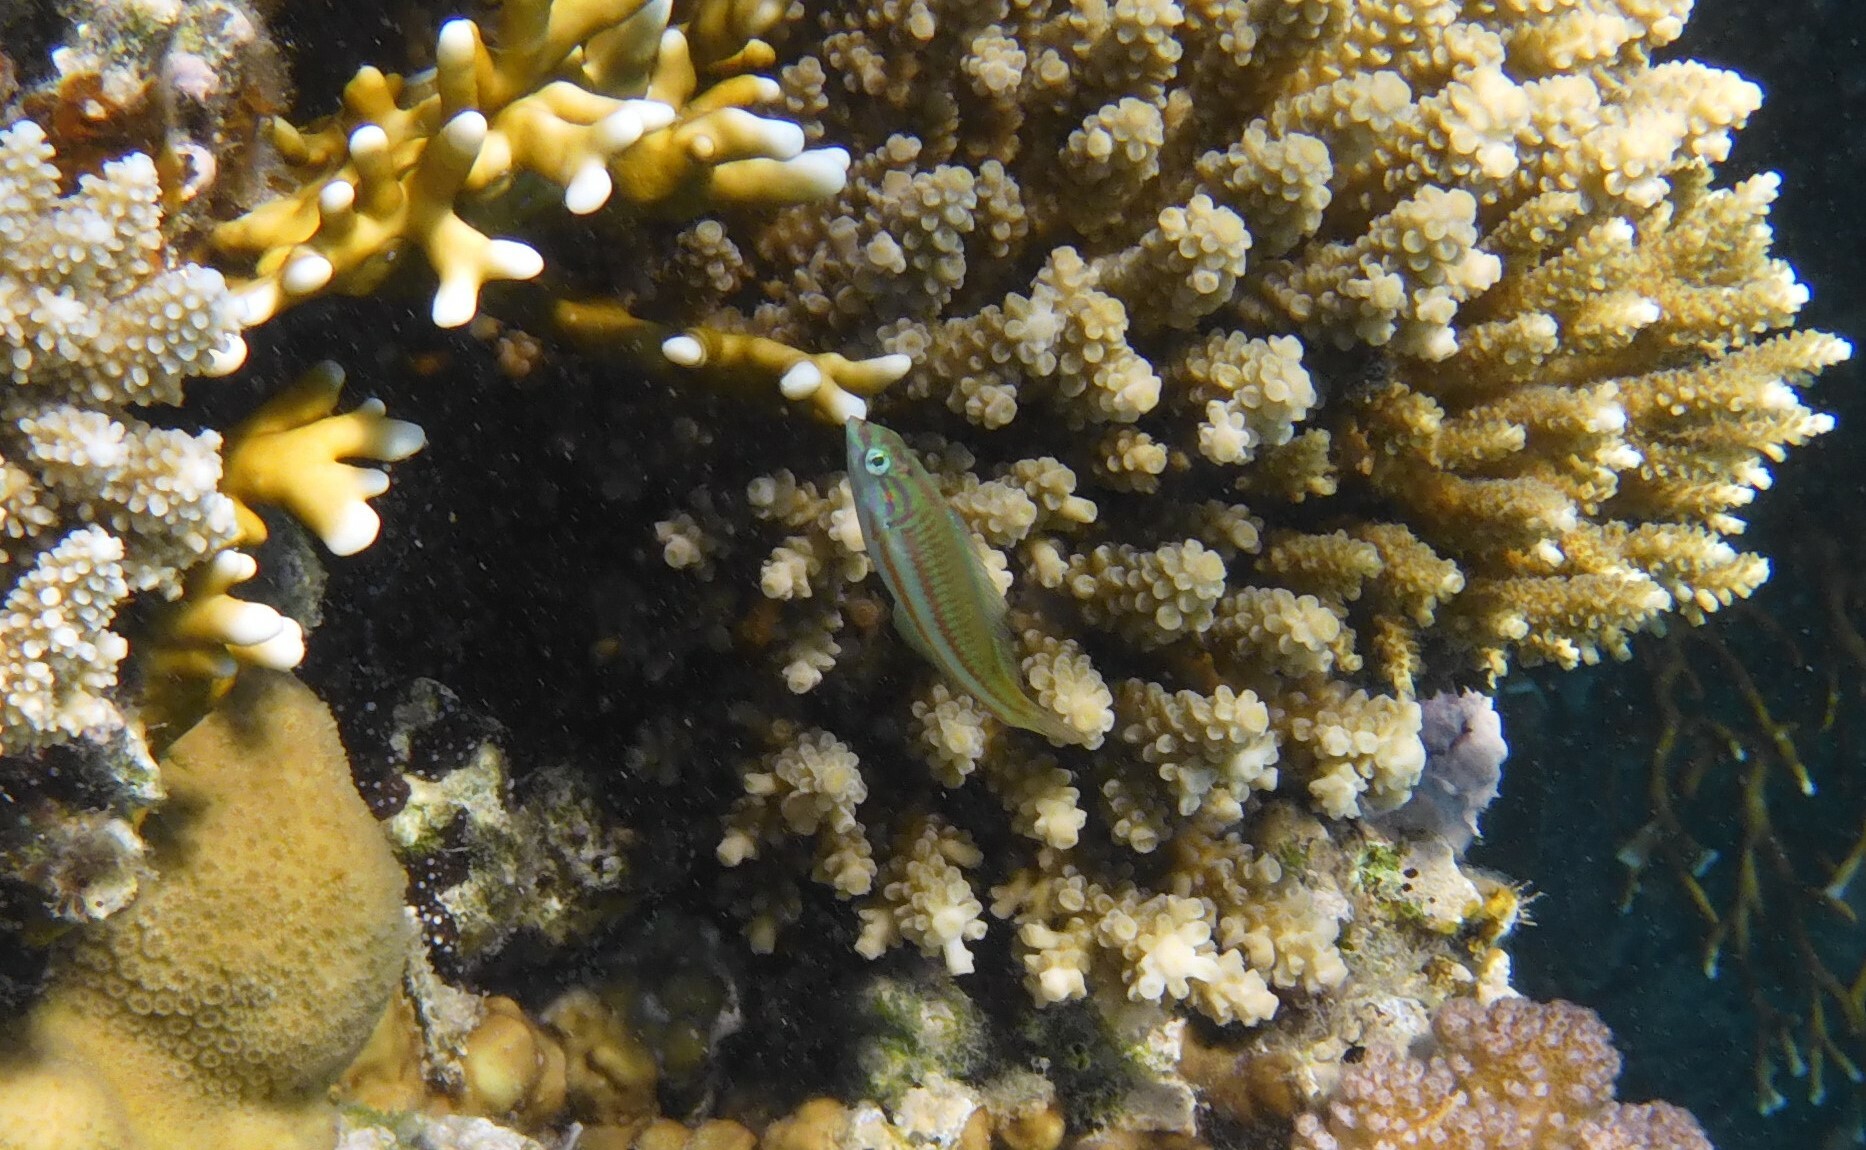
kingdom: Animalia
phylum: Chordata
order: Perciformes
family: Labridae
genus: Thalassoma
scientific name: Thalassoma rueppellii
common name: Klunzinger's wrasse
